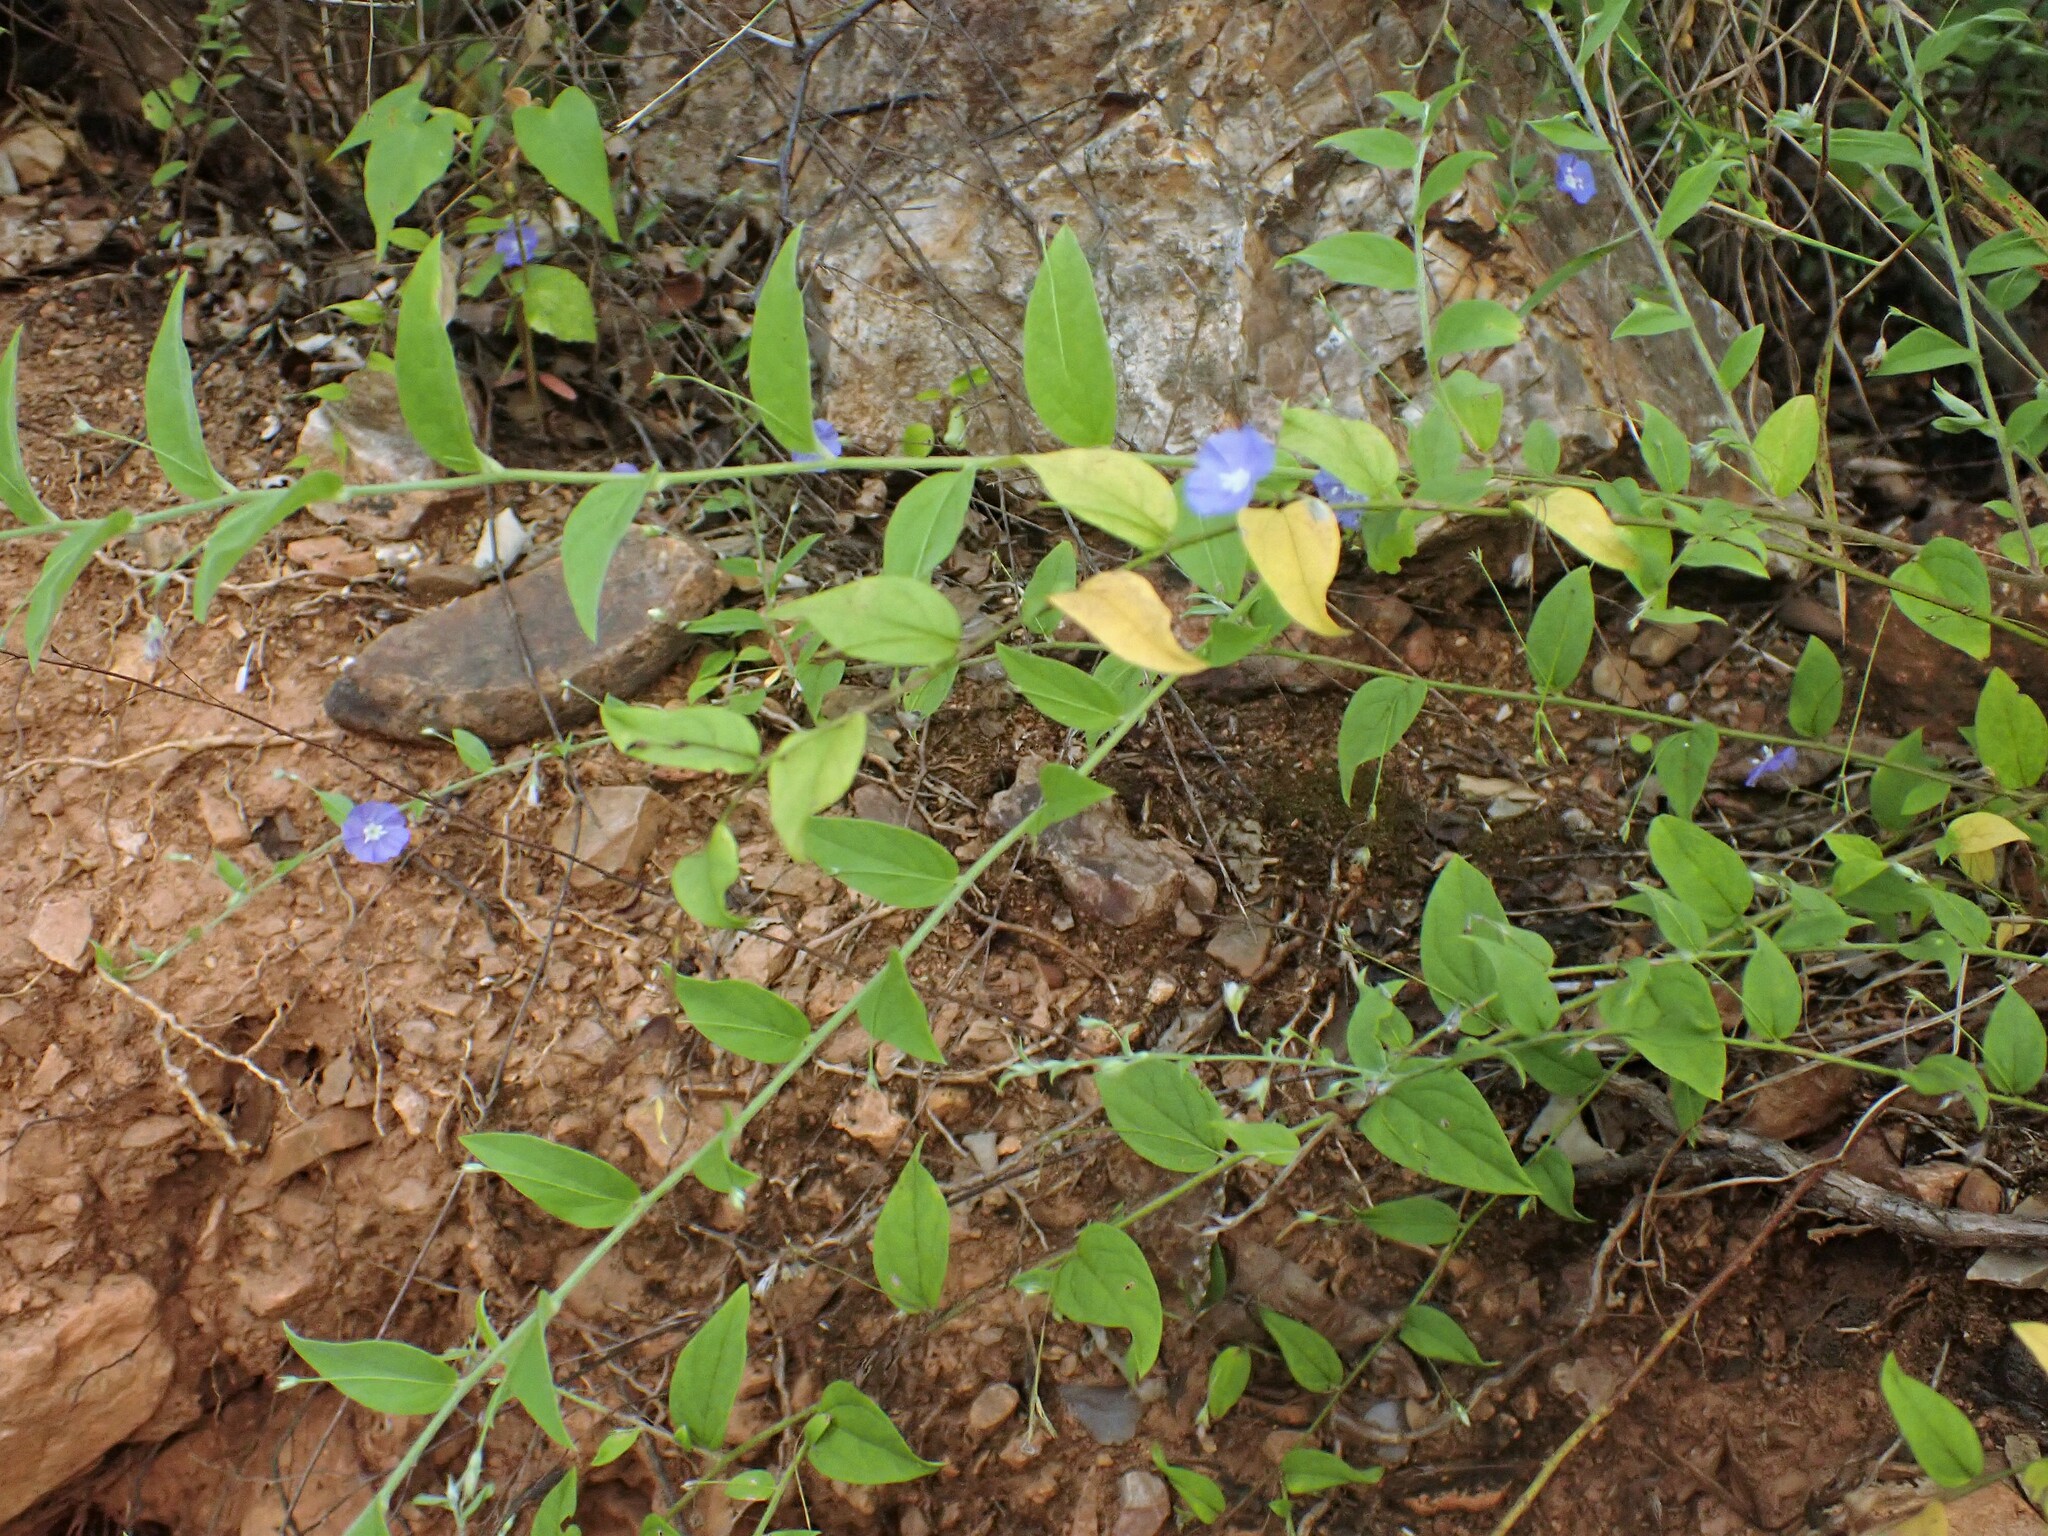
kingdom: Plantae
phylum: Tracheophyta
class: Magnoliopsida
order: Solanales
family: Convolvulaceae
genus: Evolvulus
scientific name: Evolvulus alsinoides
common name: Slender dwarf morning-glory
